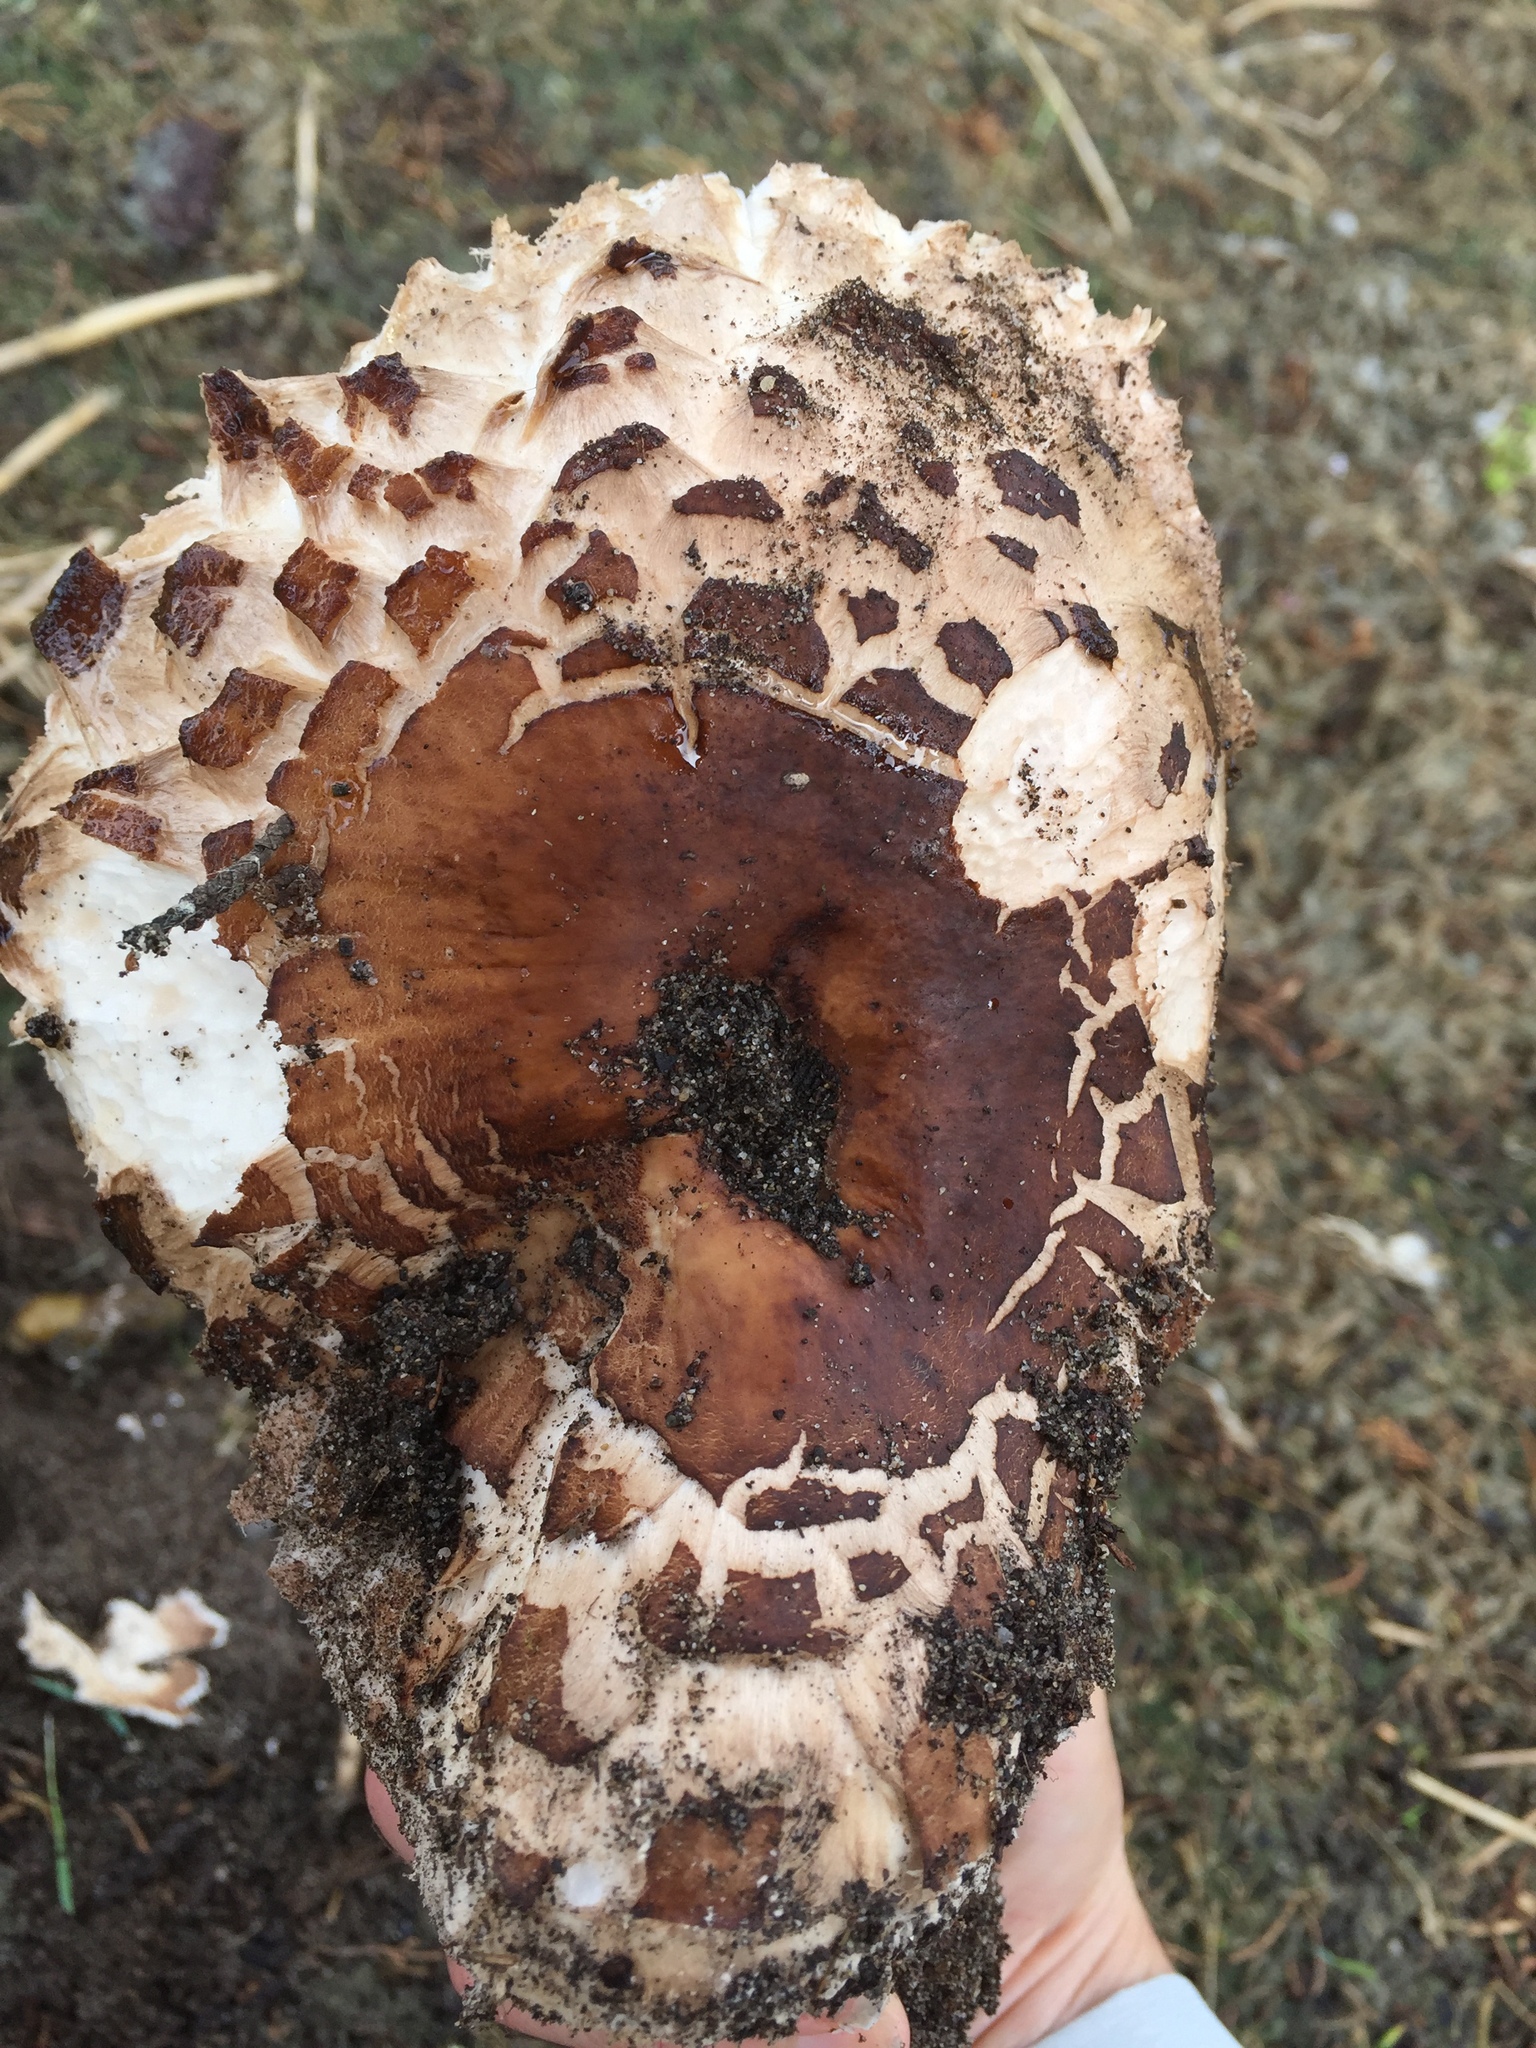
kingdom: Fungi
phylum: Basidiomycota
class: Agaricomycetes
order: Agaricales
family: Agaricaceae
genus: Chlorophyllum
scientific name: Chlorophyllum brunneum
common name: Brown parasol
